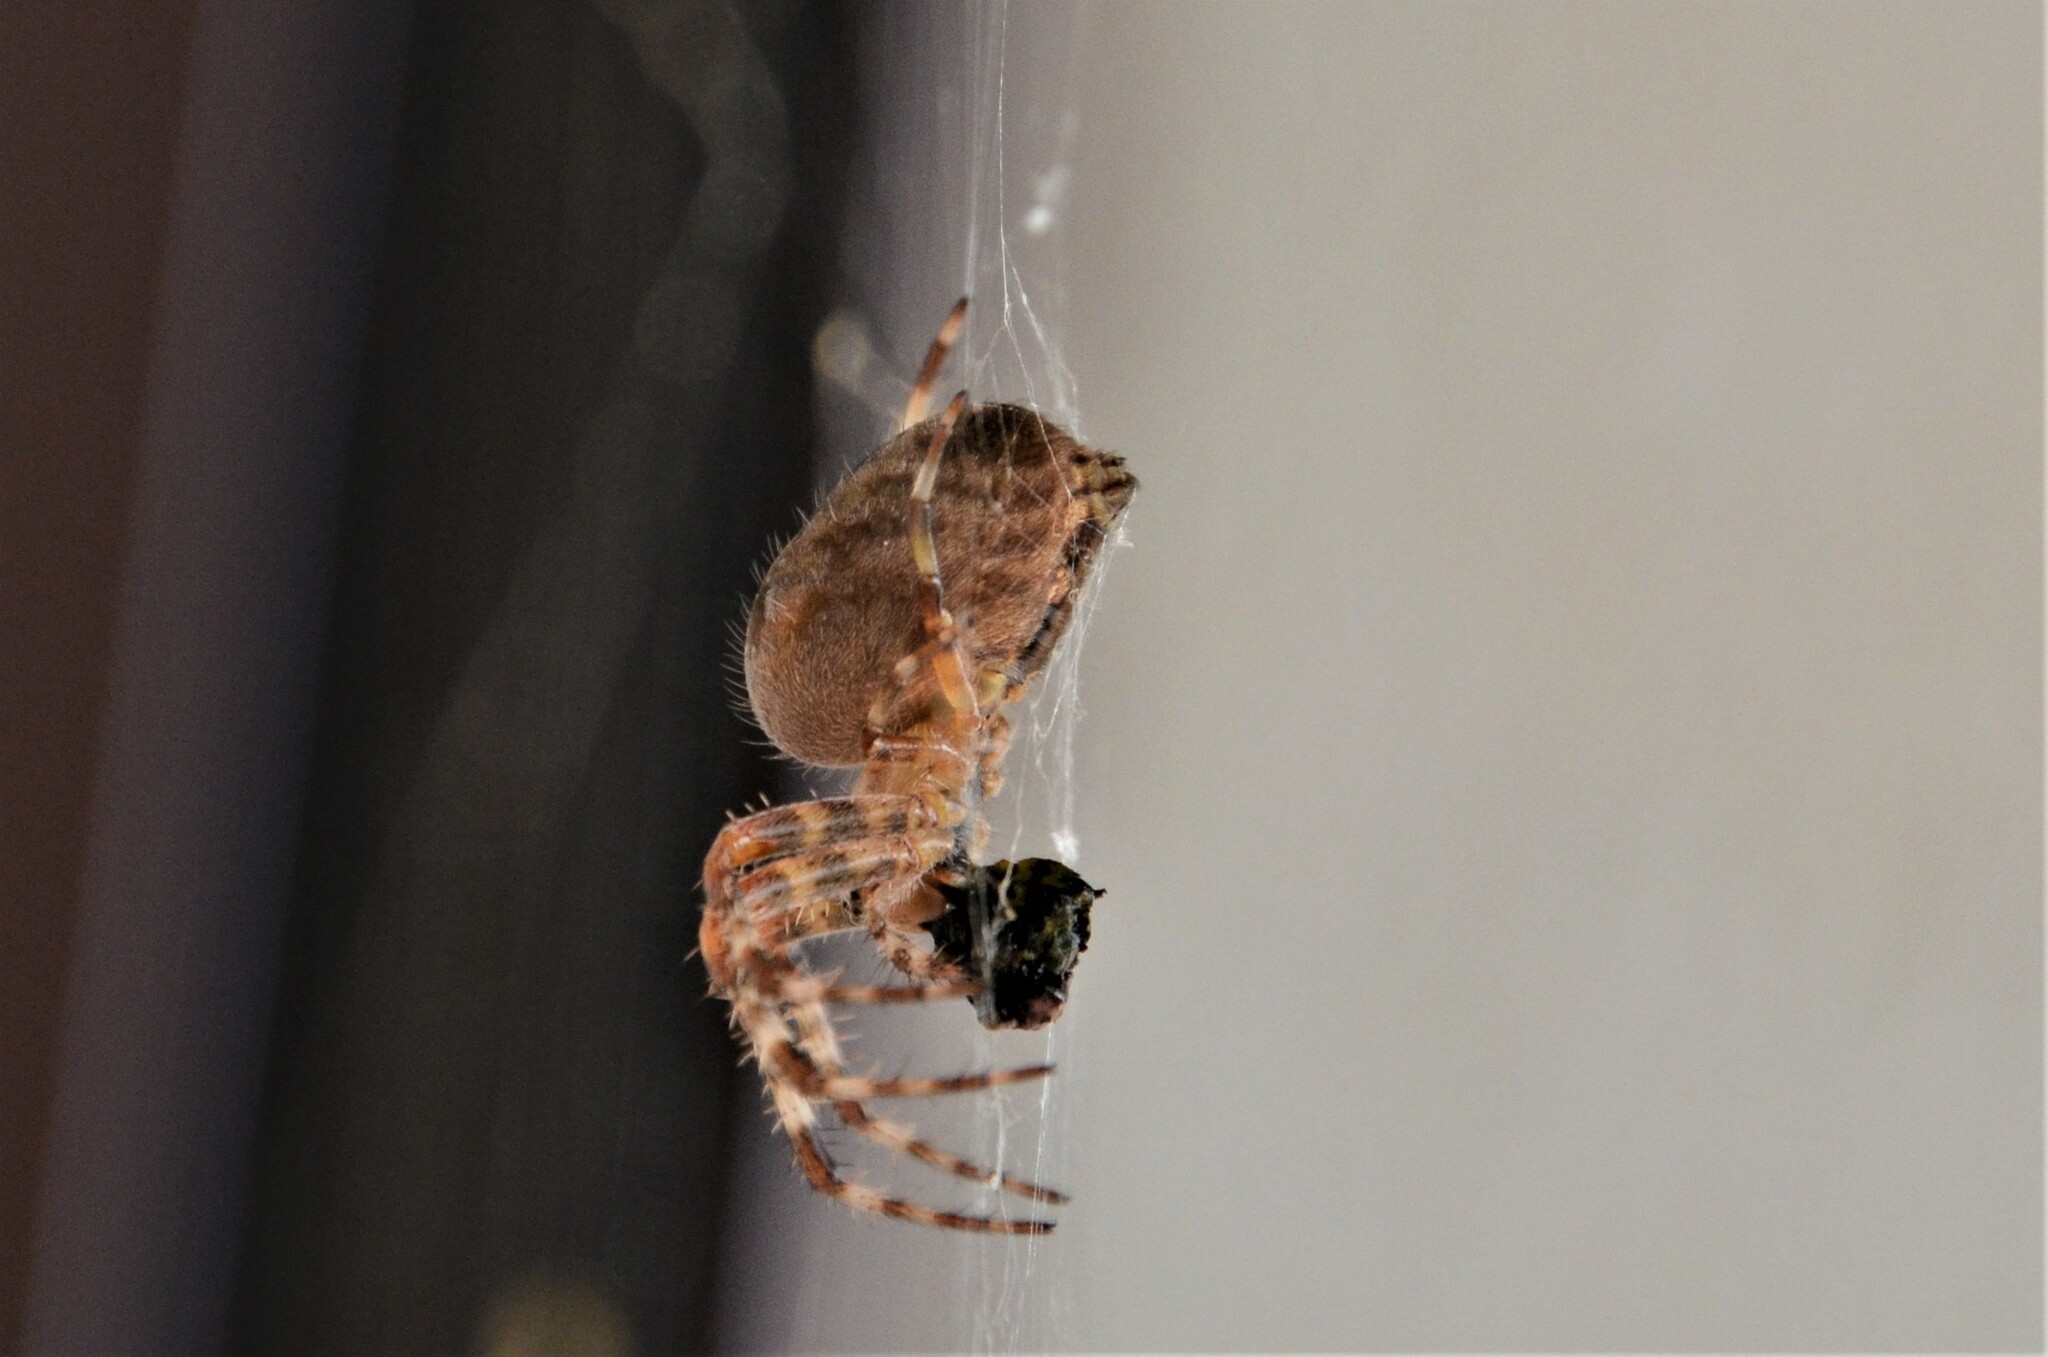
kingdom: Animalia
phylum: Arthropoda
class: Arachnida
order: Araneae
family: Araneidae
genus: Araneus
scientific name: Araneus diadematus
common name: Cross orbweaver
